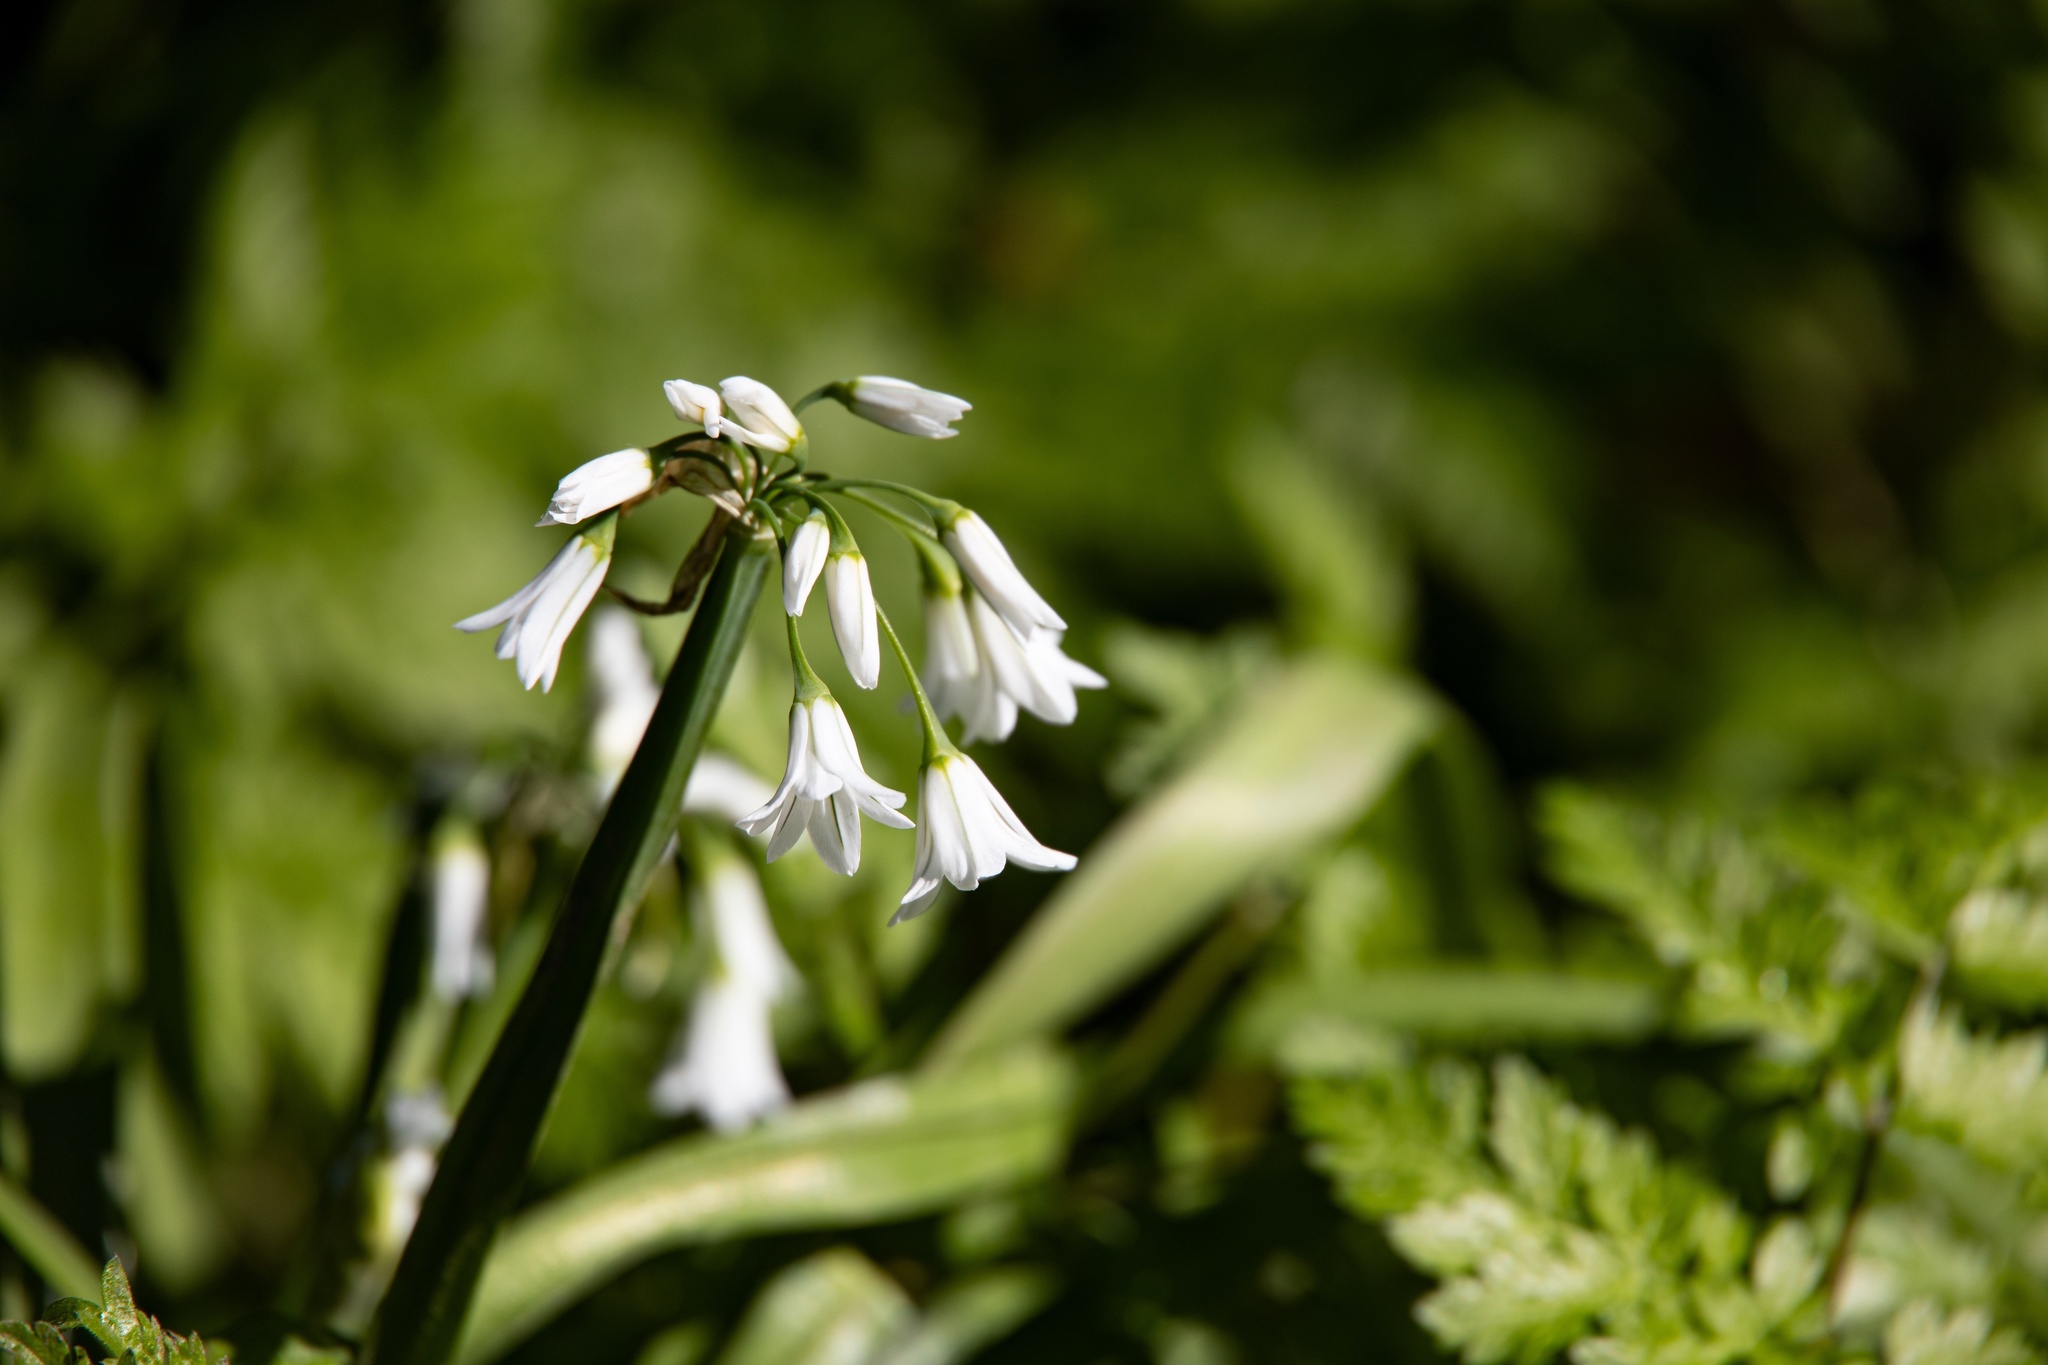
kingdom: Plantae
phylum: Tracheophyta
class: Liliopsida
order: Asparagales
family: Amaryllidaceae
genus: Allium
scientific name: Allium triquetrum
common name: Three-cornered garlic
